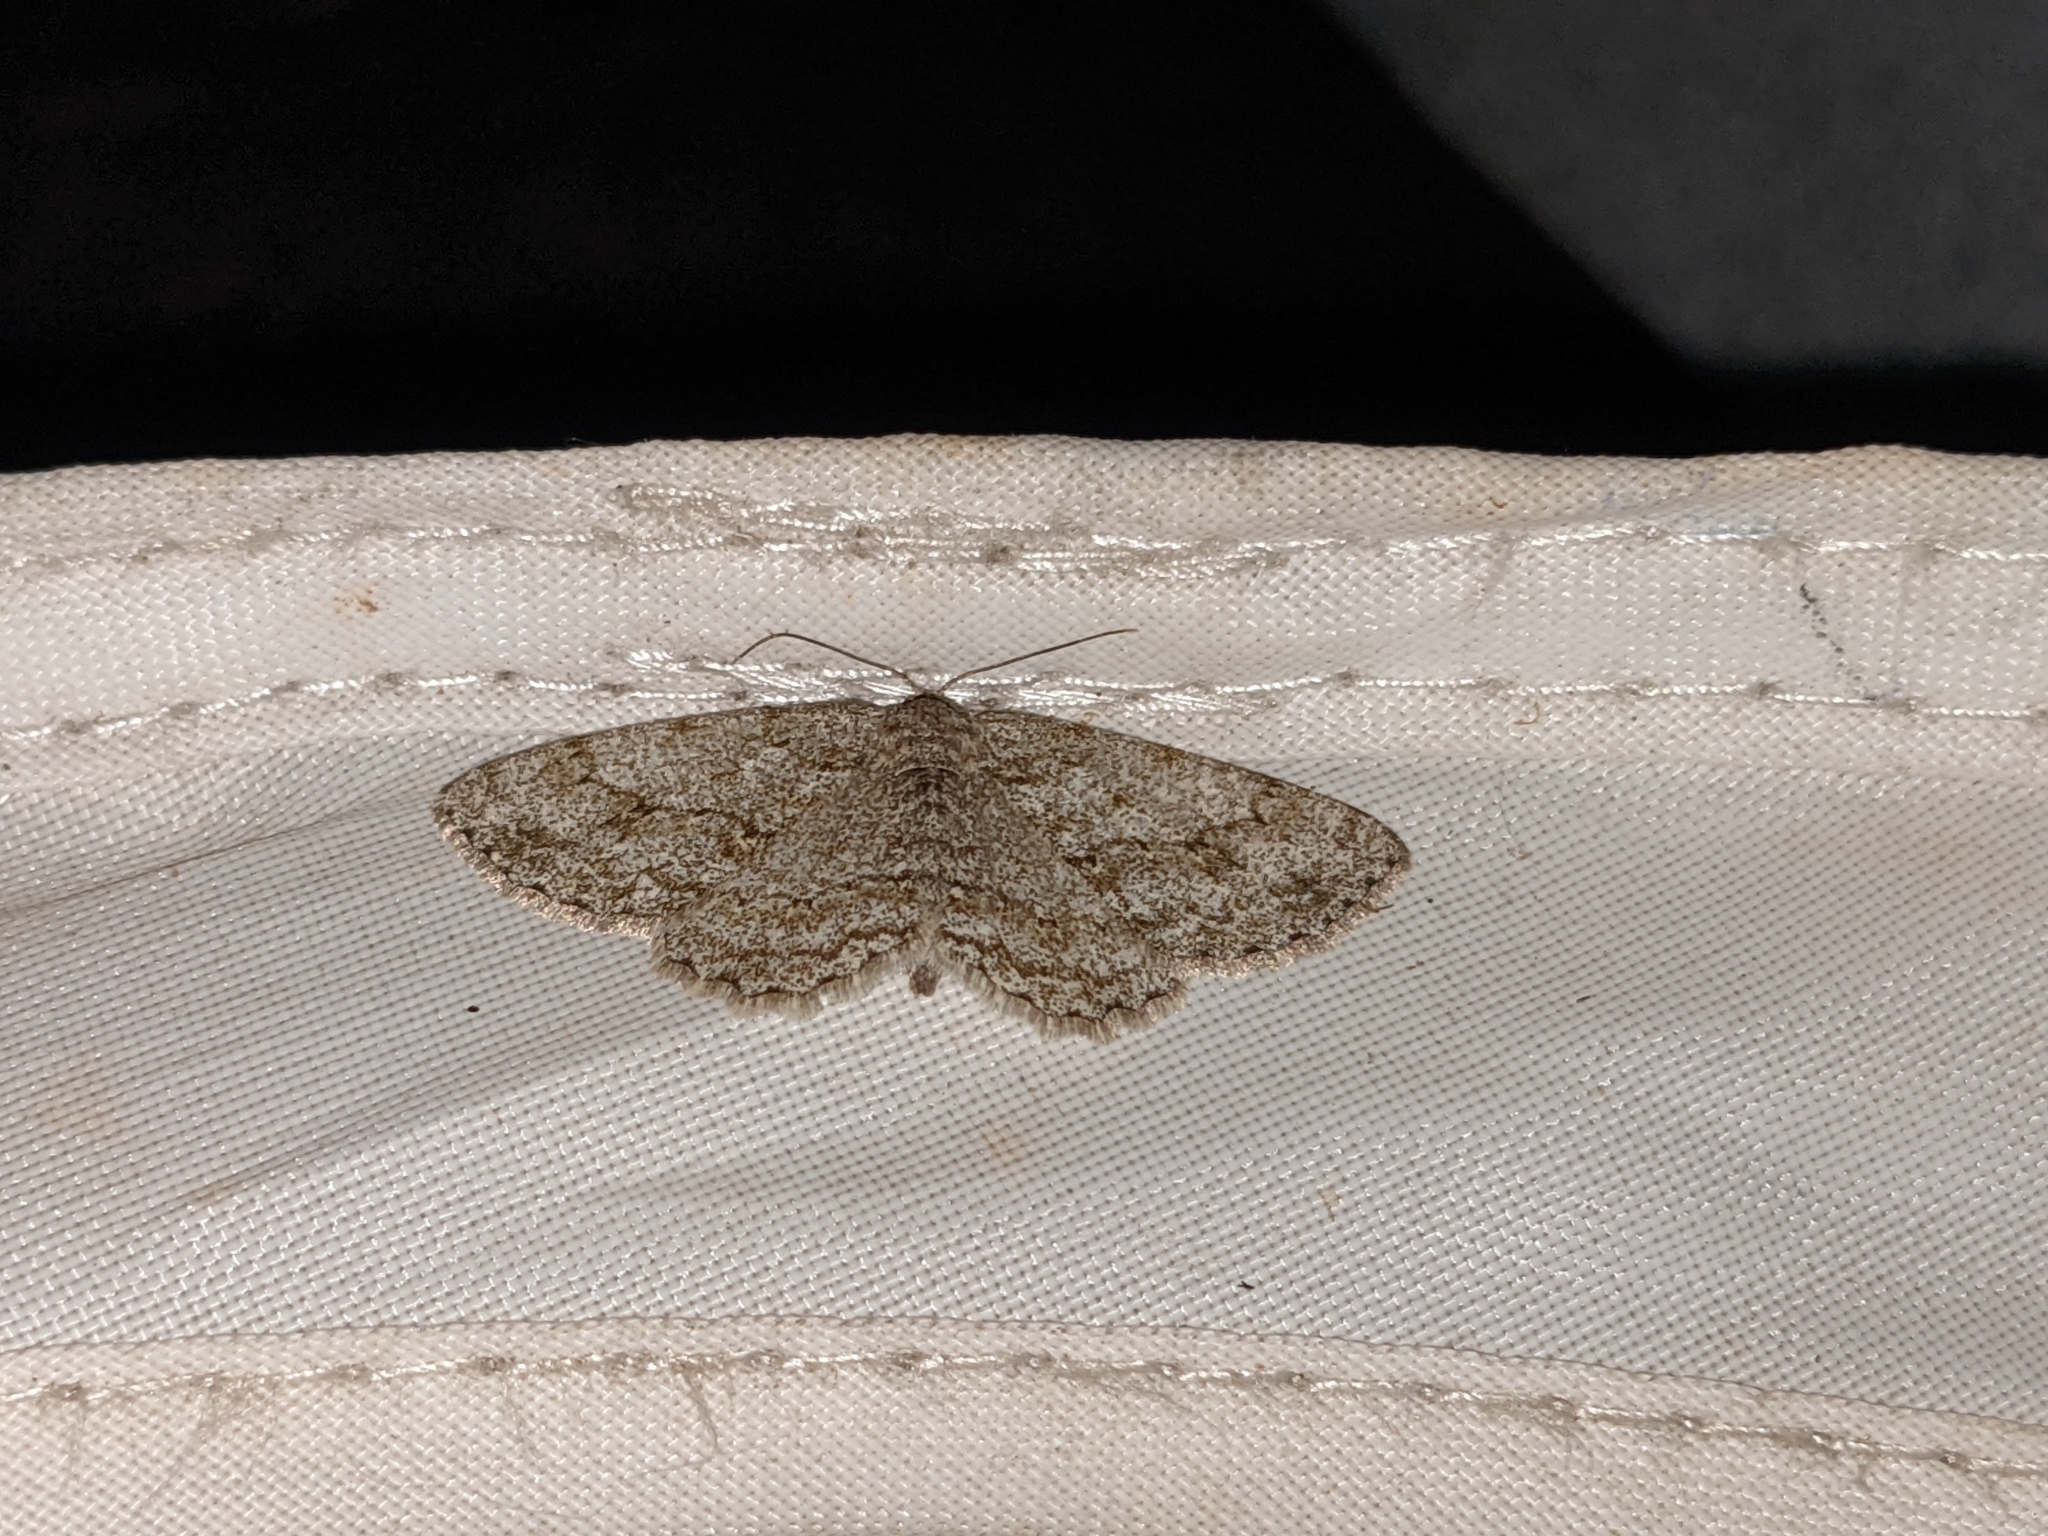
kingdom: Animalia
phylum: Arthropoda
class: Insecta
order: Lepidoptera
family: Geometridae
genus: Ectropis
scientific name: Ectropis crepuscularia
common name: Engrailed
